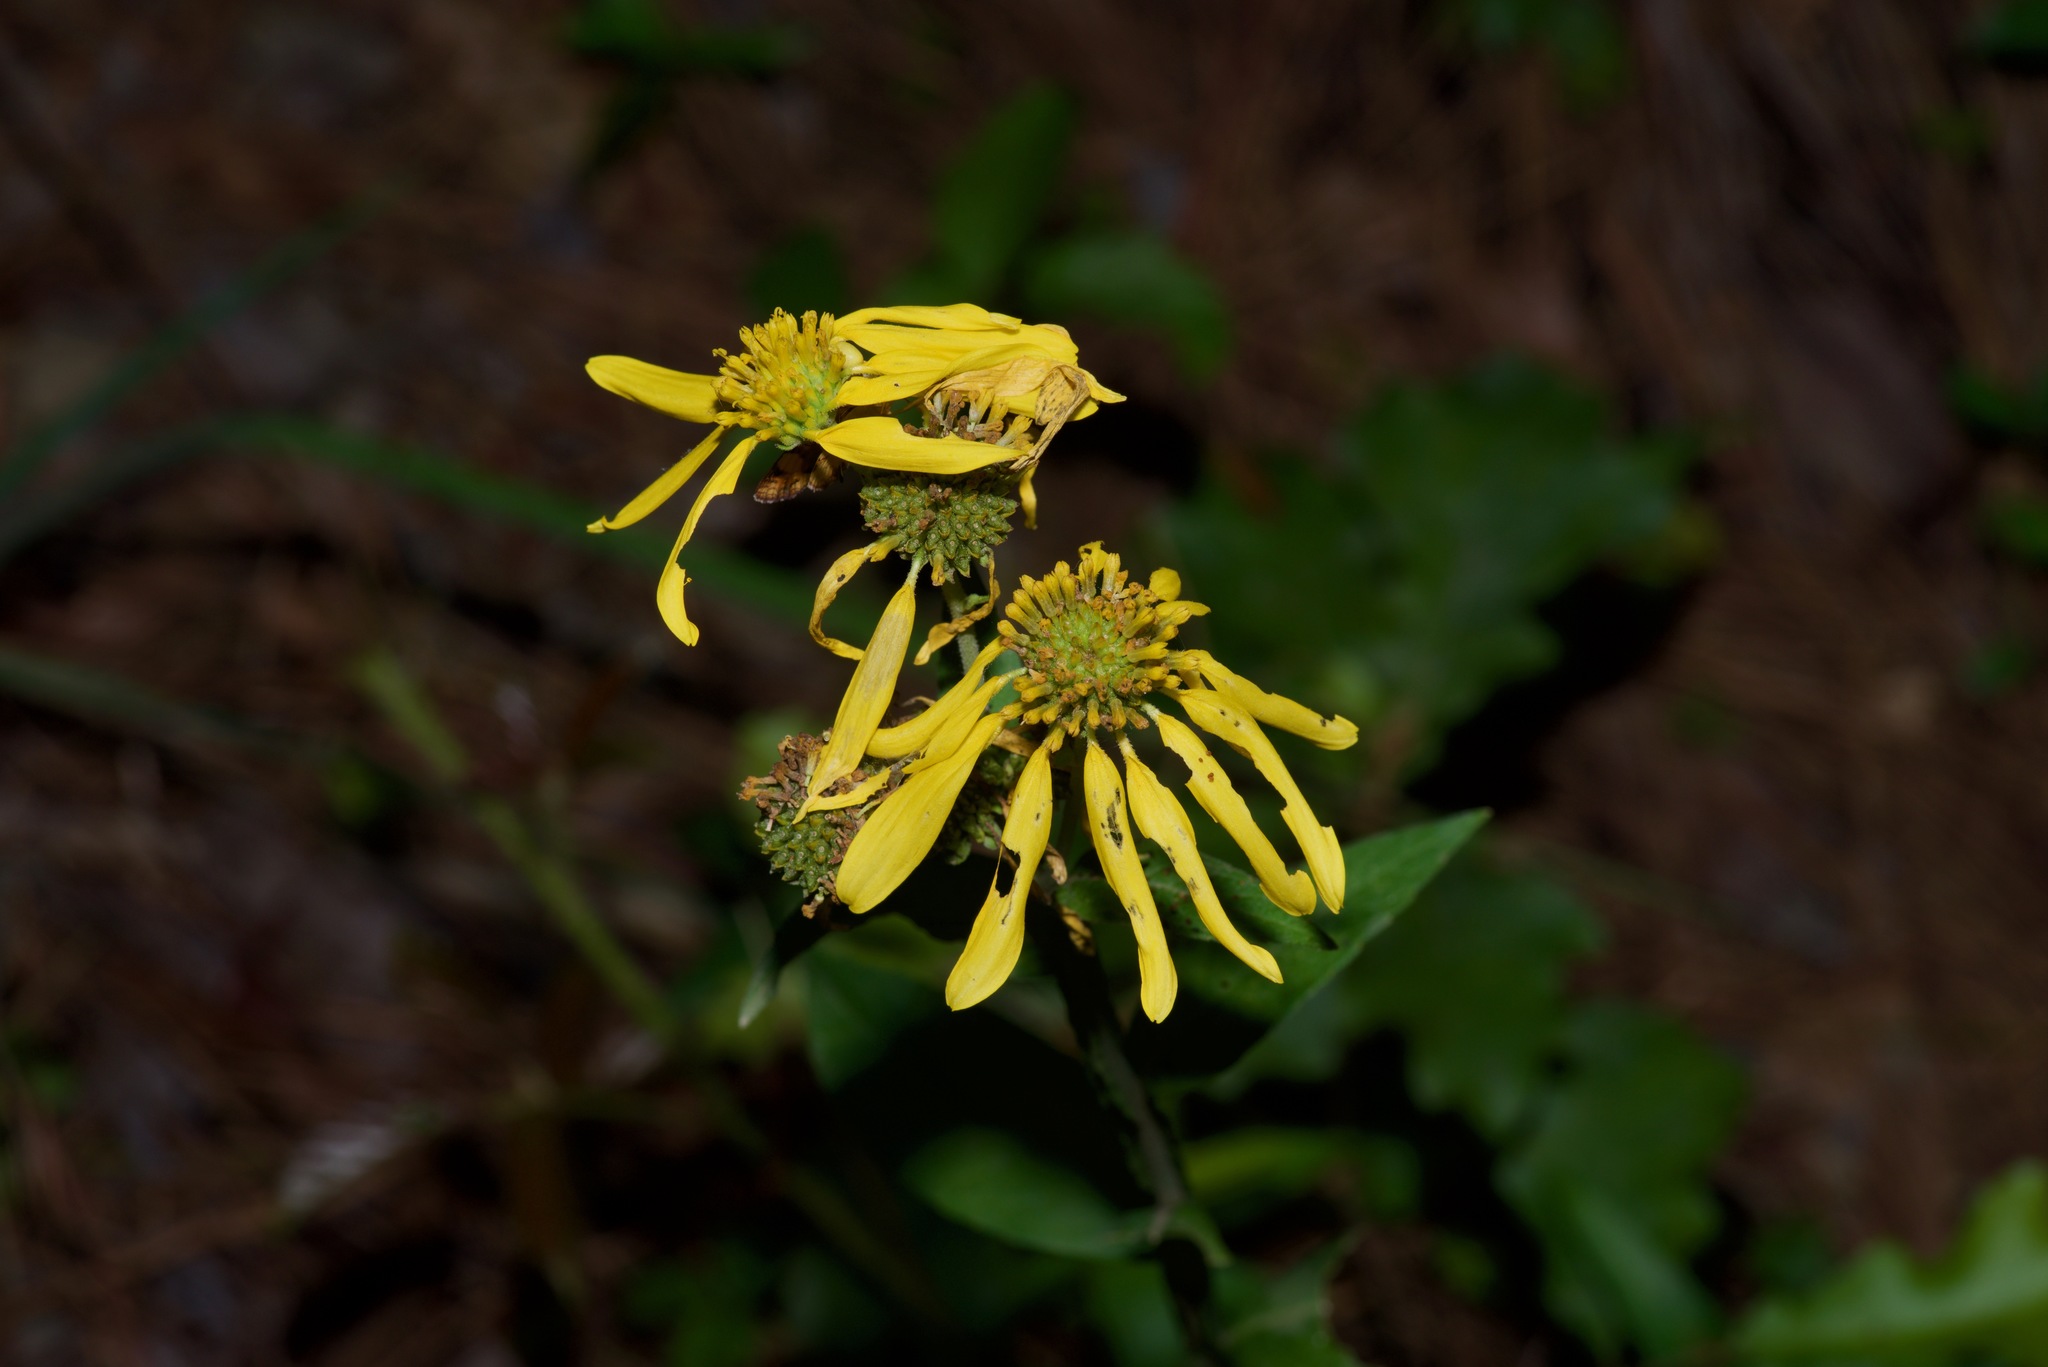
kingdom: Plantae
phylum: Tracheophyta
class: Magnoliopsida
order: Asterales
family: Asteraceae
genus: Verbesina
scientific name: Verbesina helianthoides
